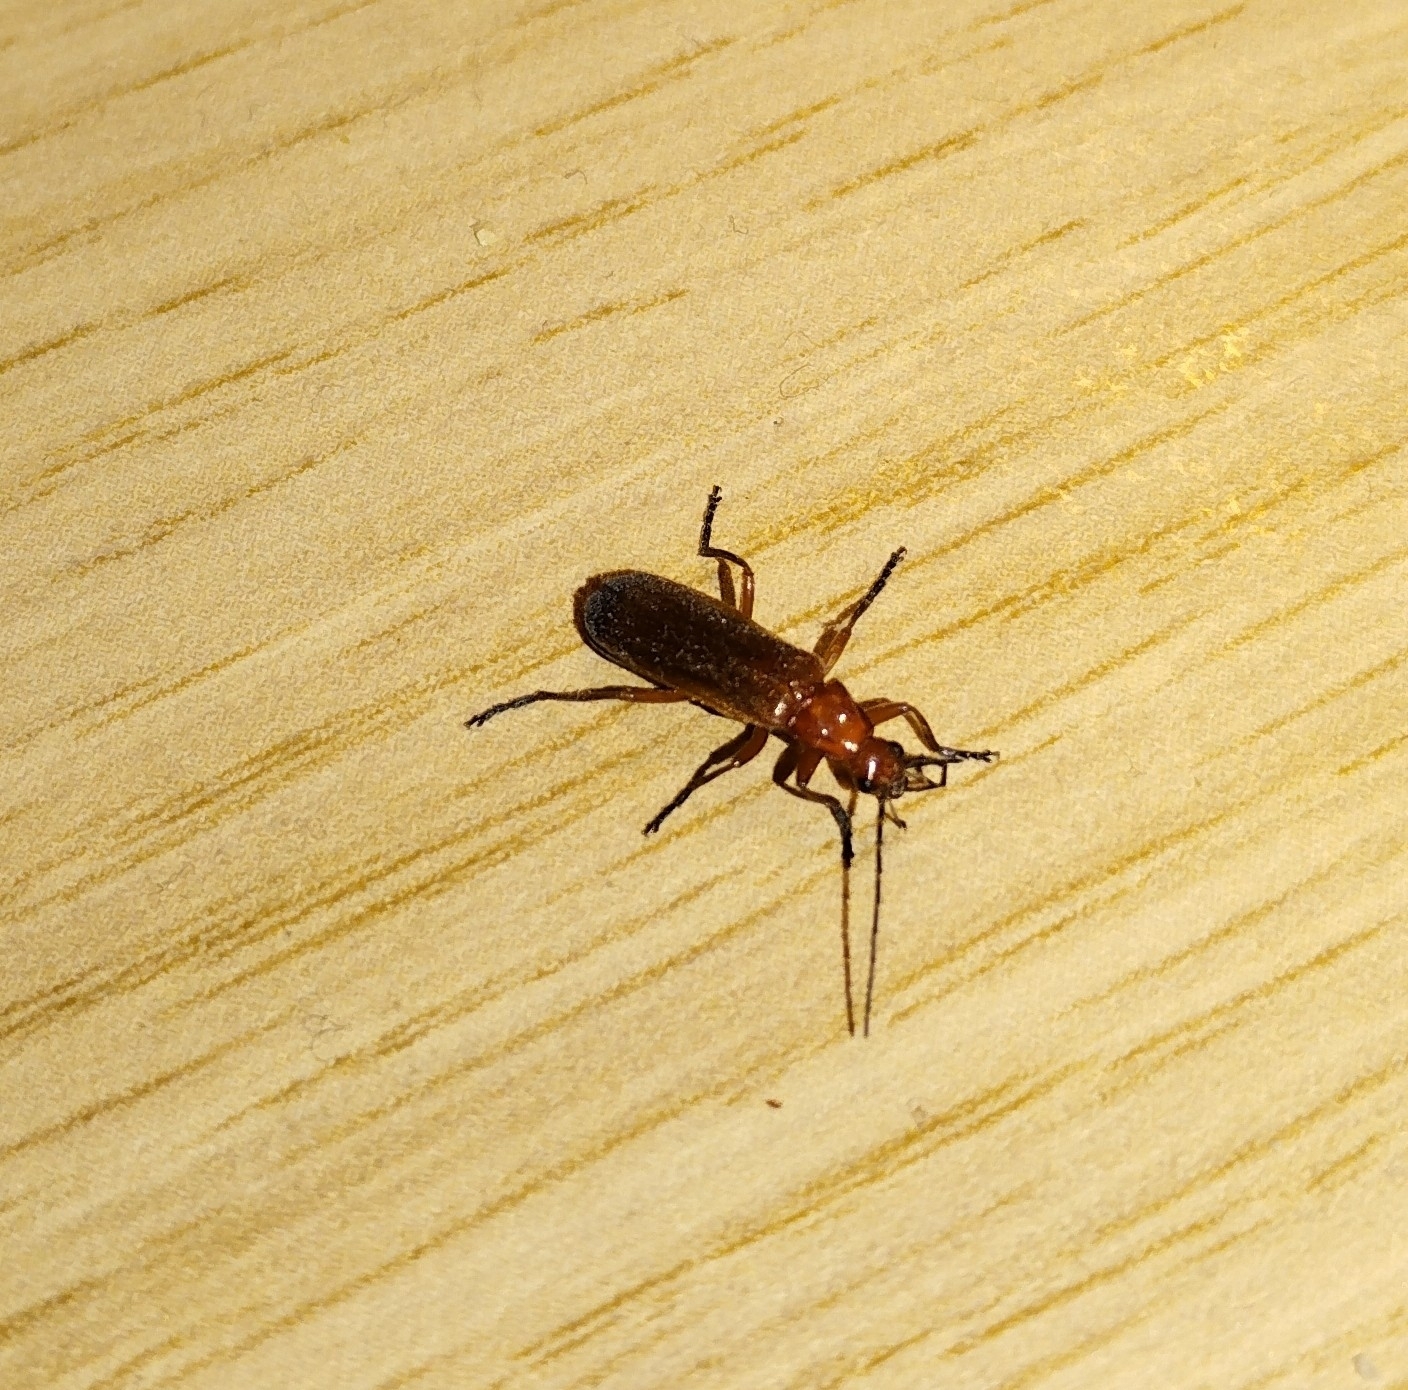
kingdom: Animalia
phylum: Arthropoda
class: Insecta
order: Coleoptera
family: Cantharidae
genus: Rhagonycha
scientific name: Rhagonycha fulva
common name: Common red soldier beetle
